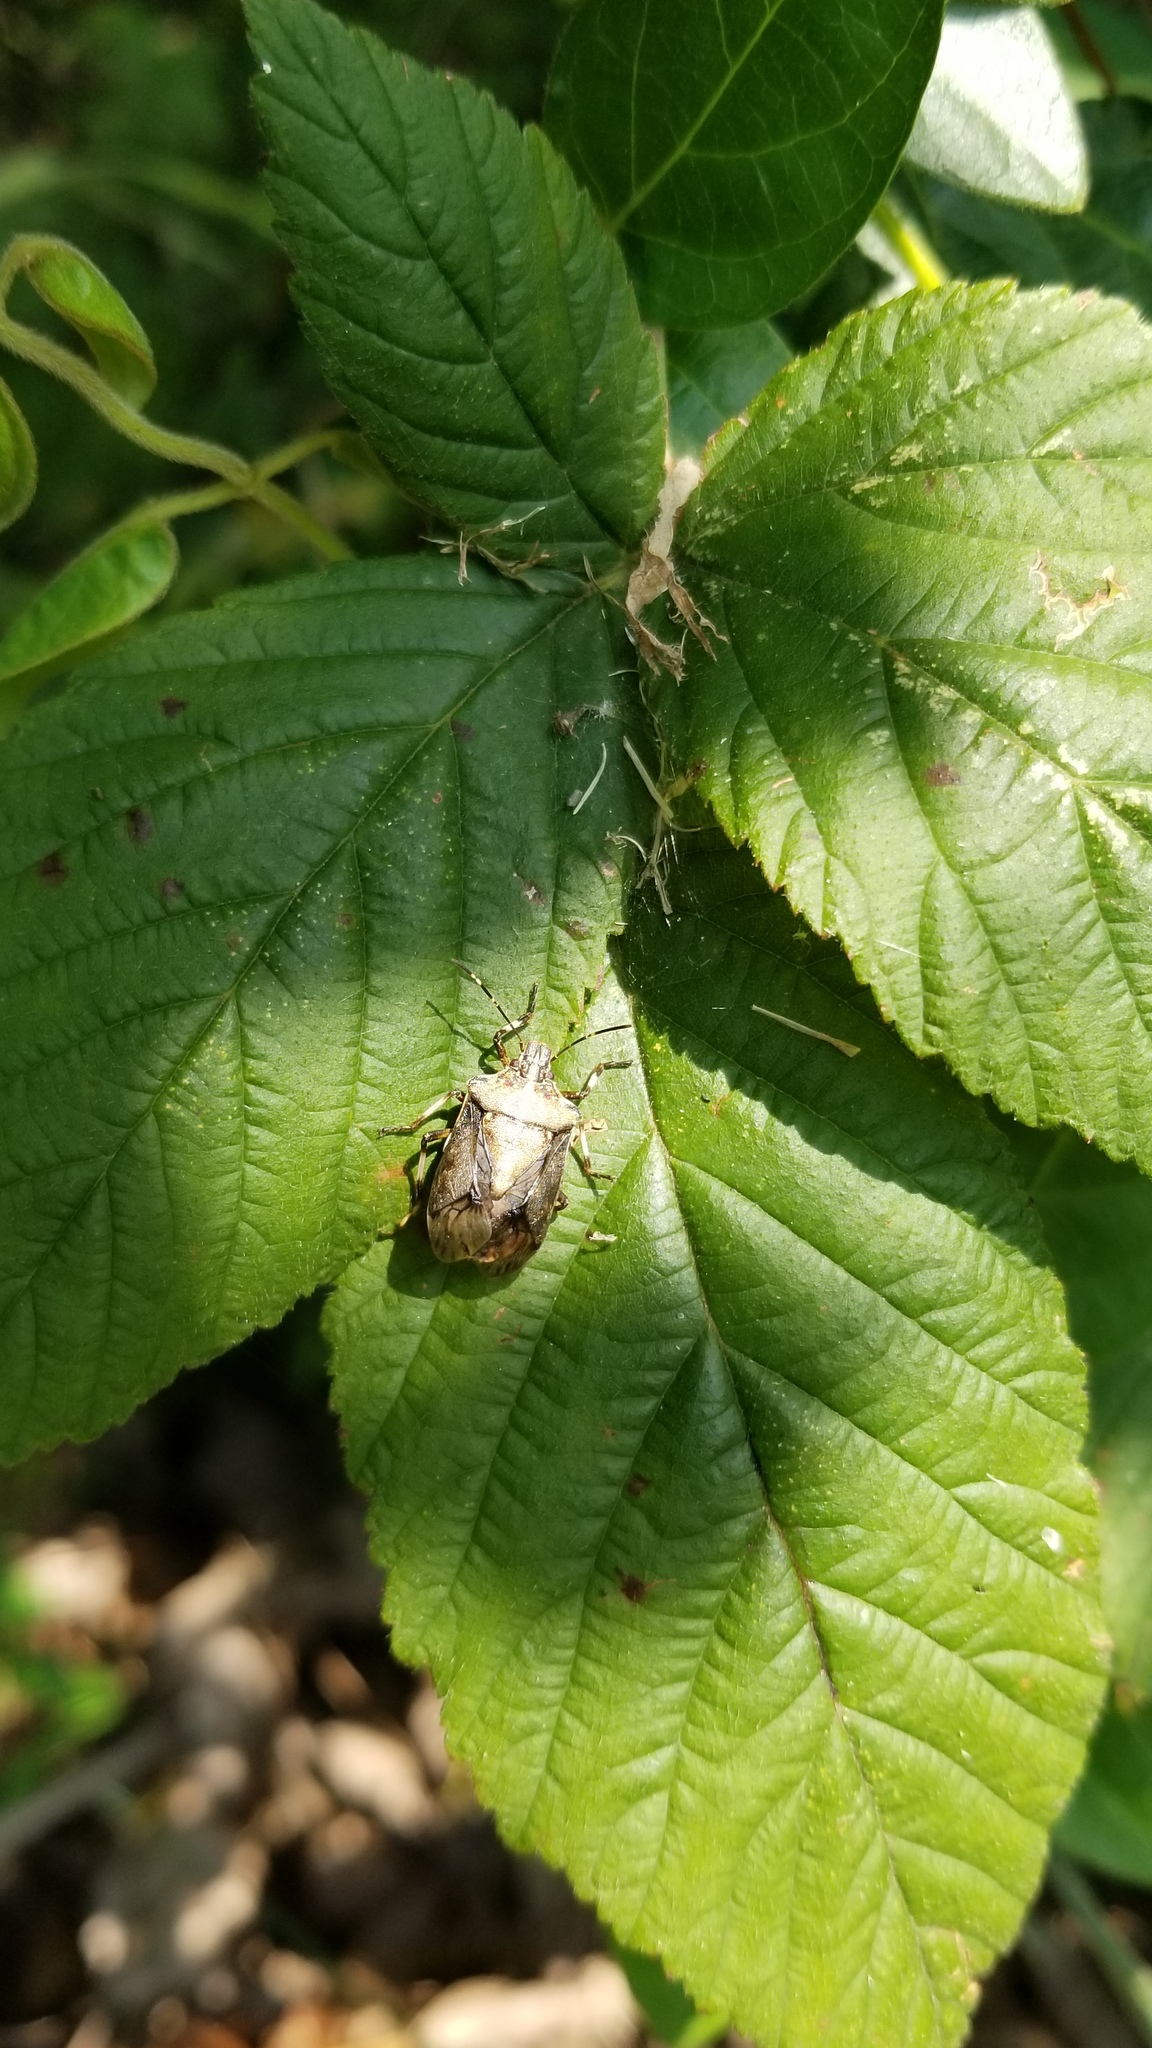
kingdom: Animalia
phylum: Arthropoda
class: Insecta
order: Hemiptera
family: Pentatomidae
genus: Halyomorpha
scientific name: Halyomorpha halys
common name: Brown marmorated stink bug
